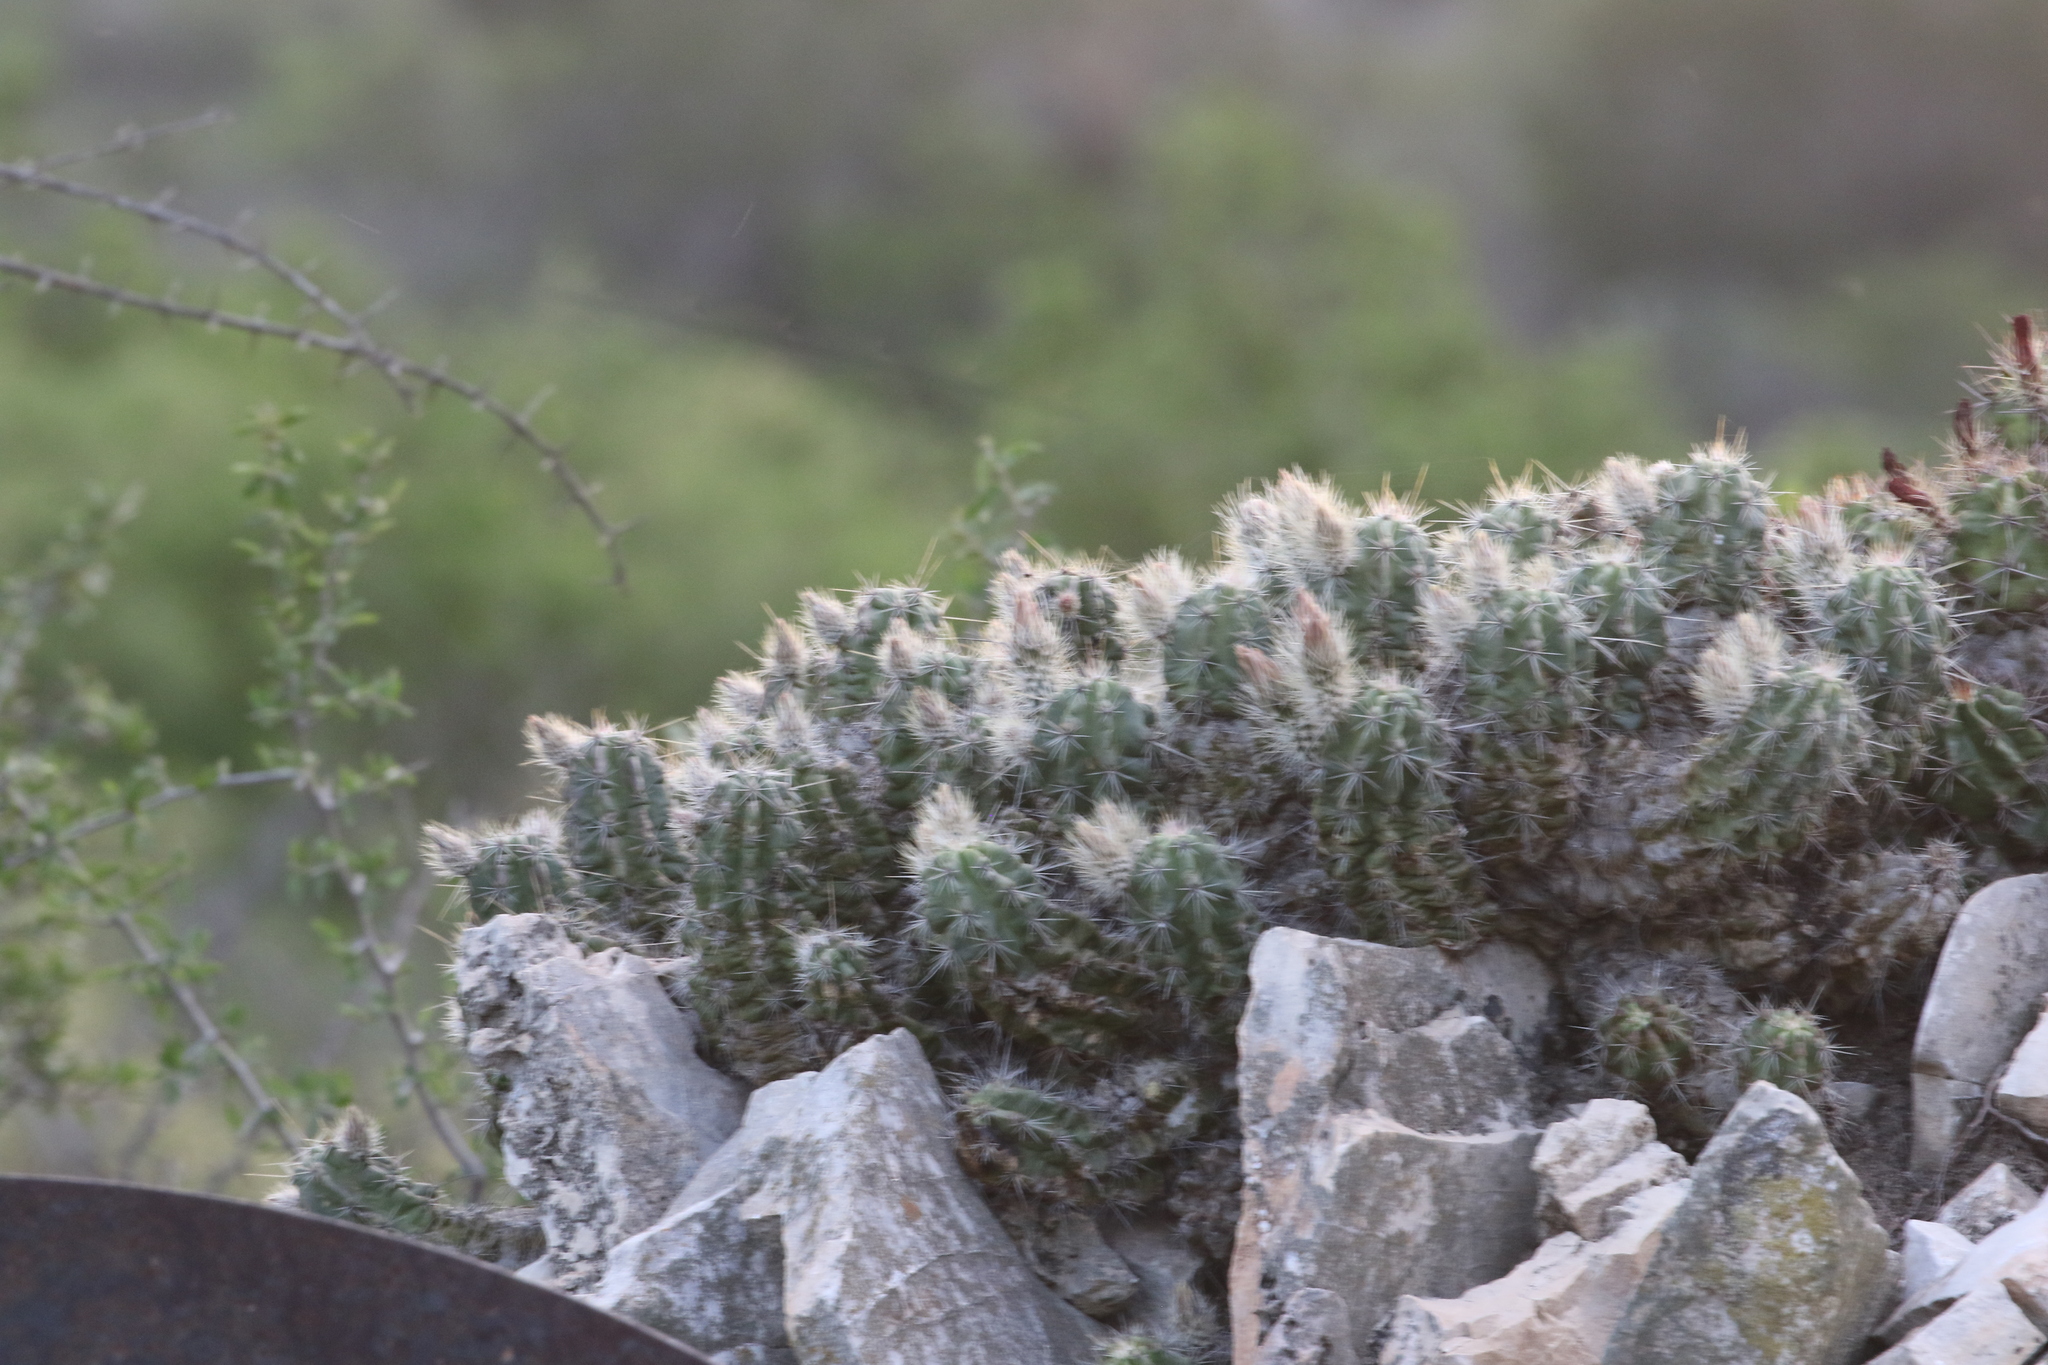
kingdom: Plantae
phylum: Tracheophyta
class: Magnoliopsida
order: Caryophyllales
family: Cactaceae
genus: Echinocereus
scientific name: Echinocereus enneacanthus
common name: Pitaya
